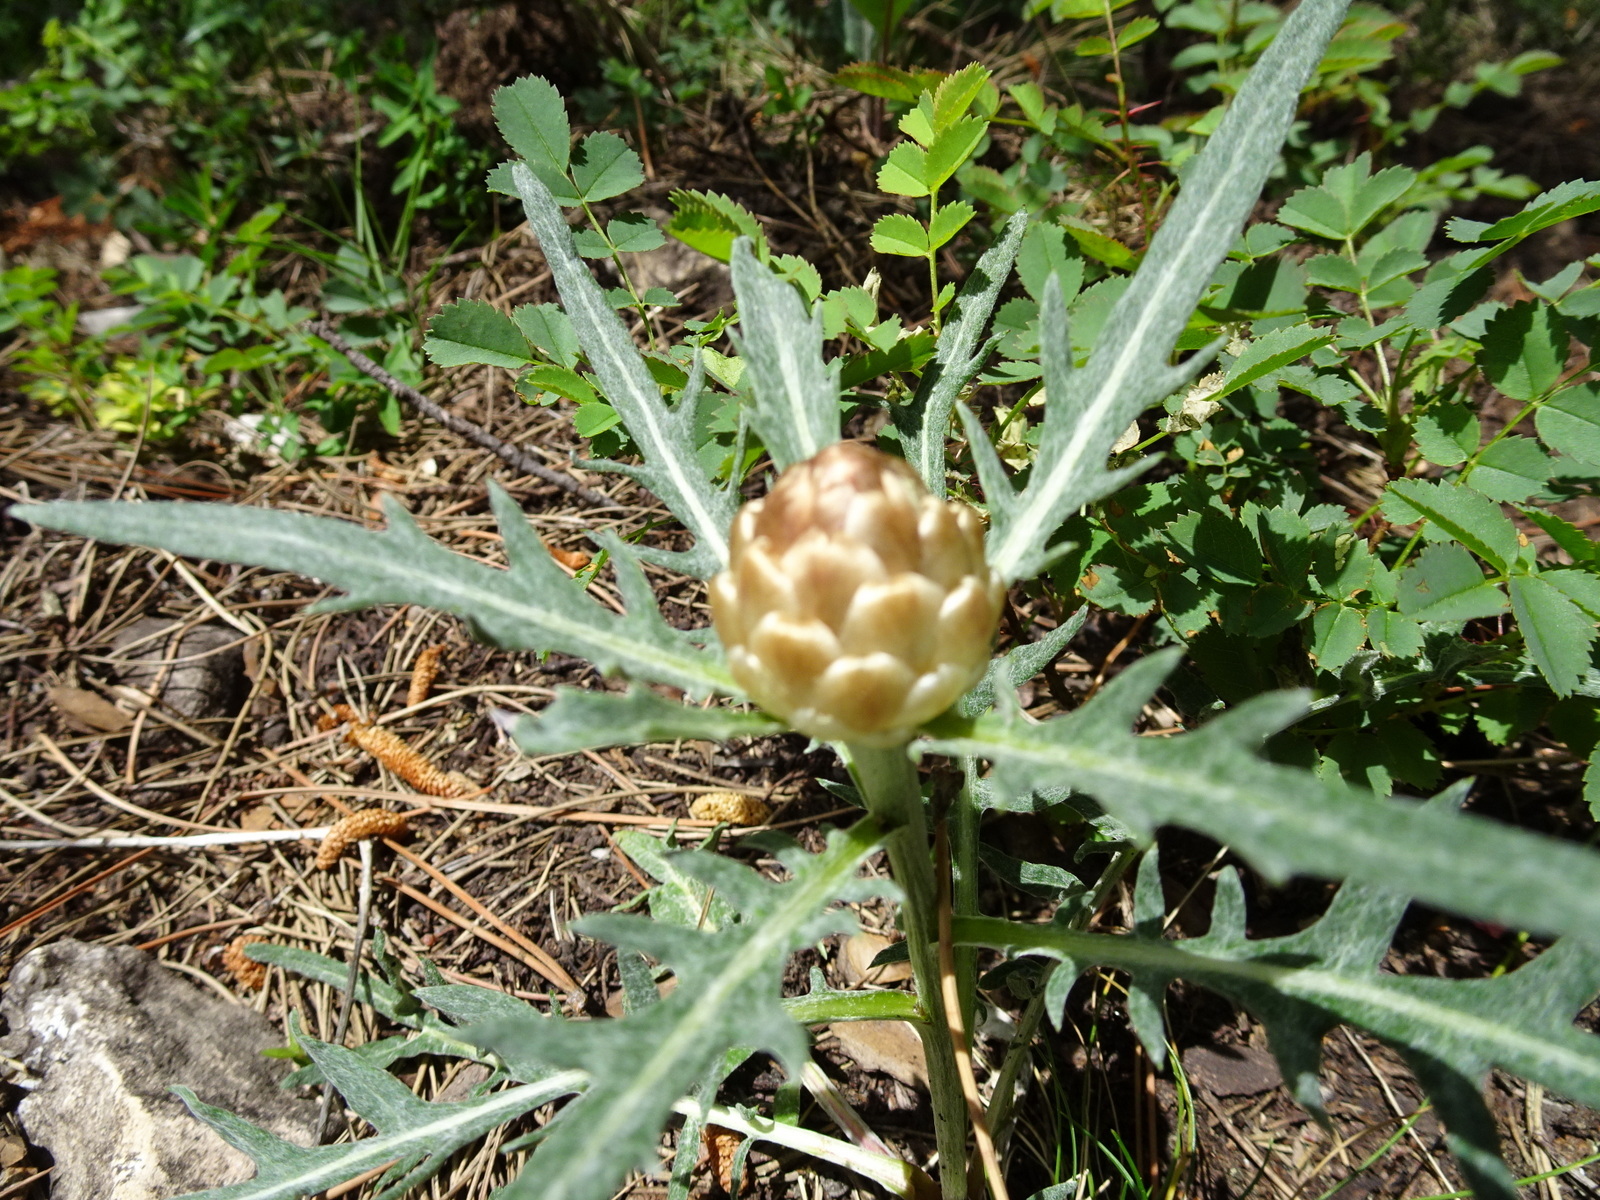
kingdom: Plantae
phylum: Tracheophyta
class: Magnoliopsida
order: Asterales
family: Asteraceae
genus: Leuzea
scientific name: Leuzea conifera
